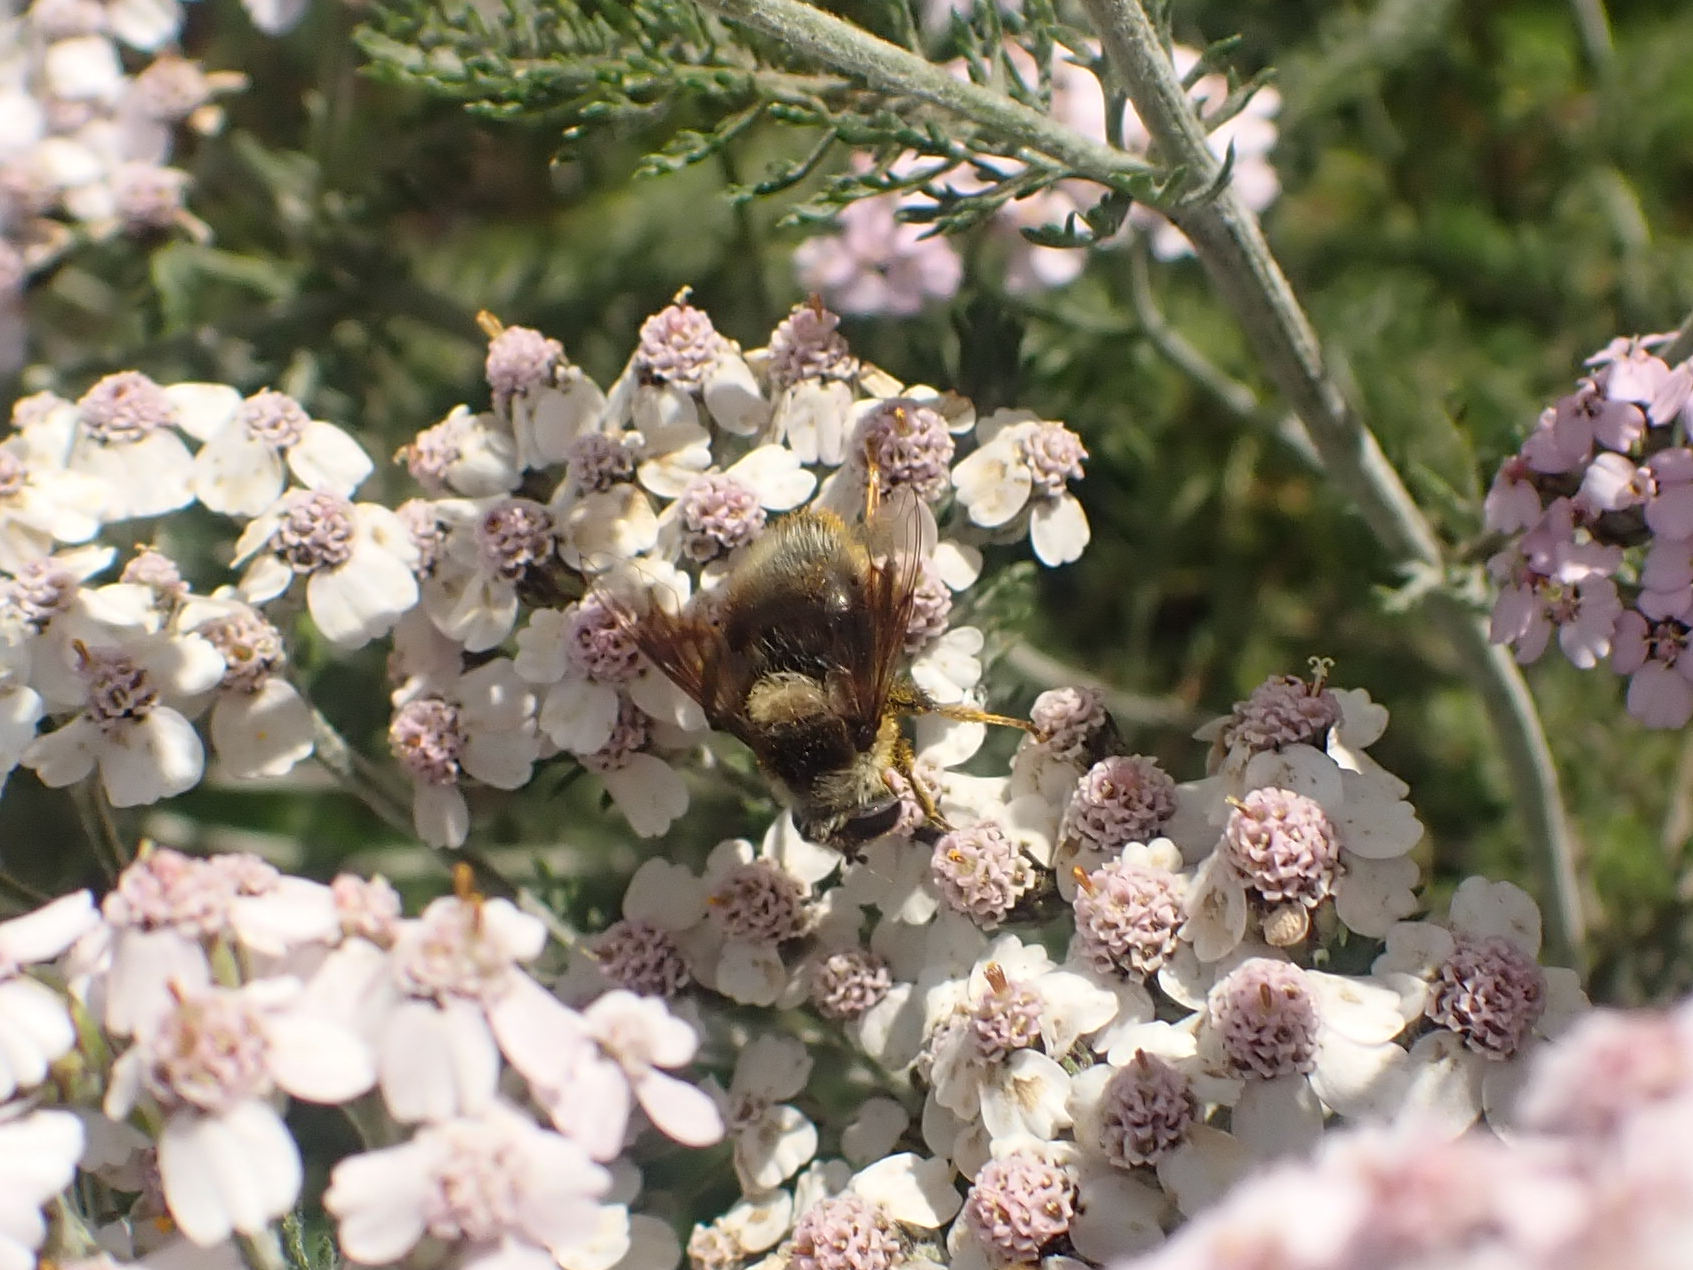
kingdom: Animalia
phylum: Arthropoda
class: Insecta
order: Diptera
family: Syrphidae
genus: Eristalis
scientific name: Eristalis flavipes
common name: Orange-legged drone fly
